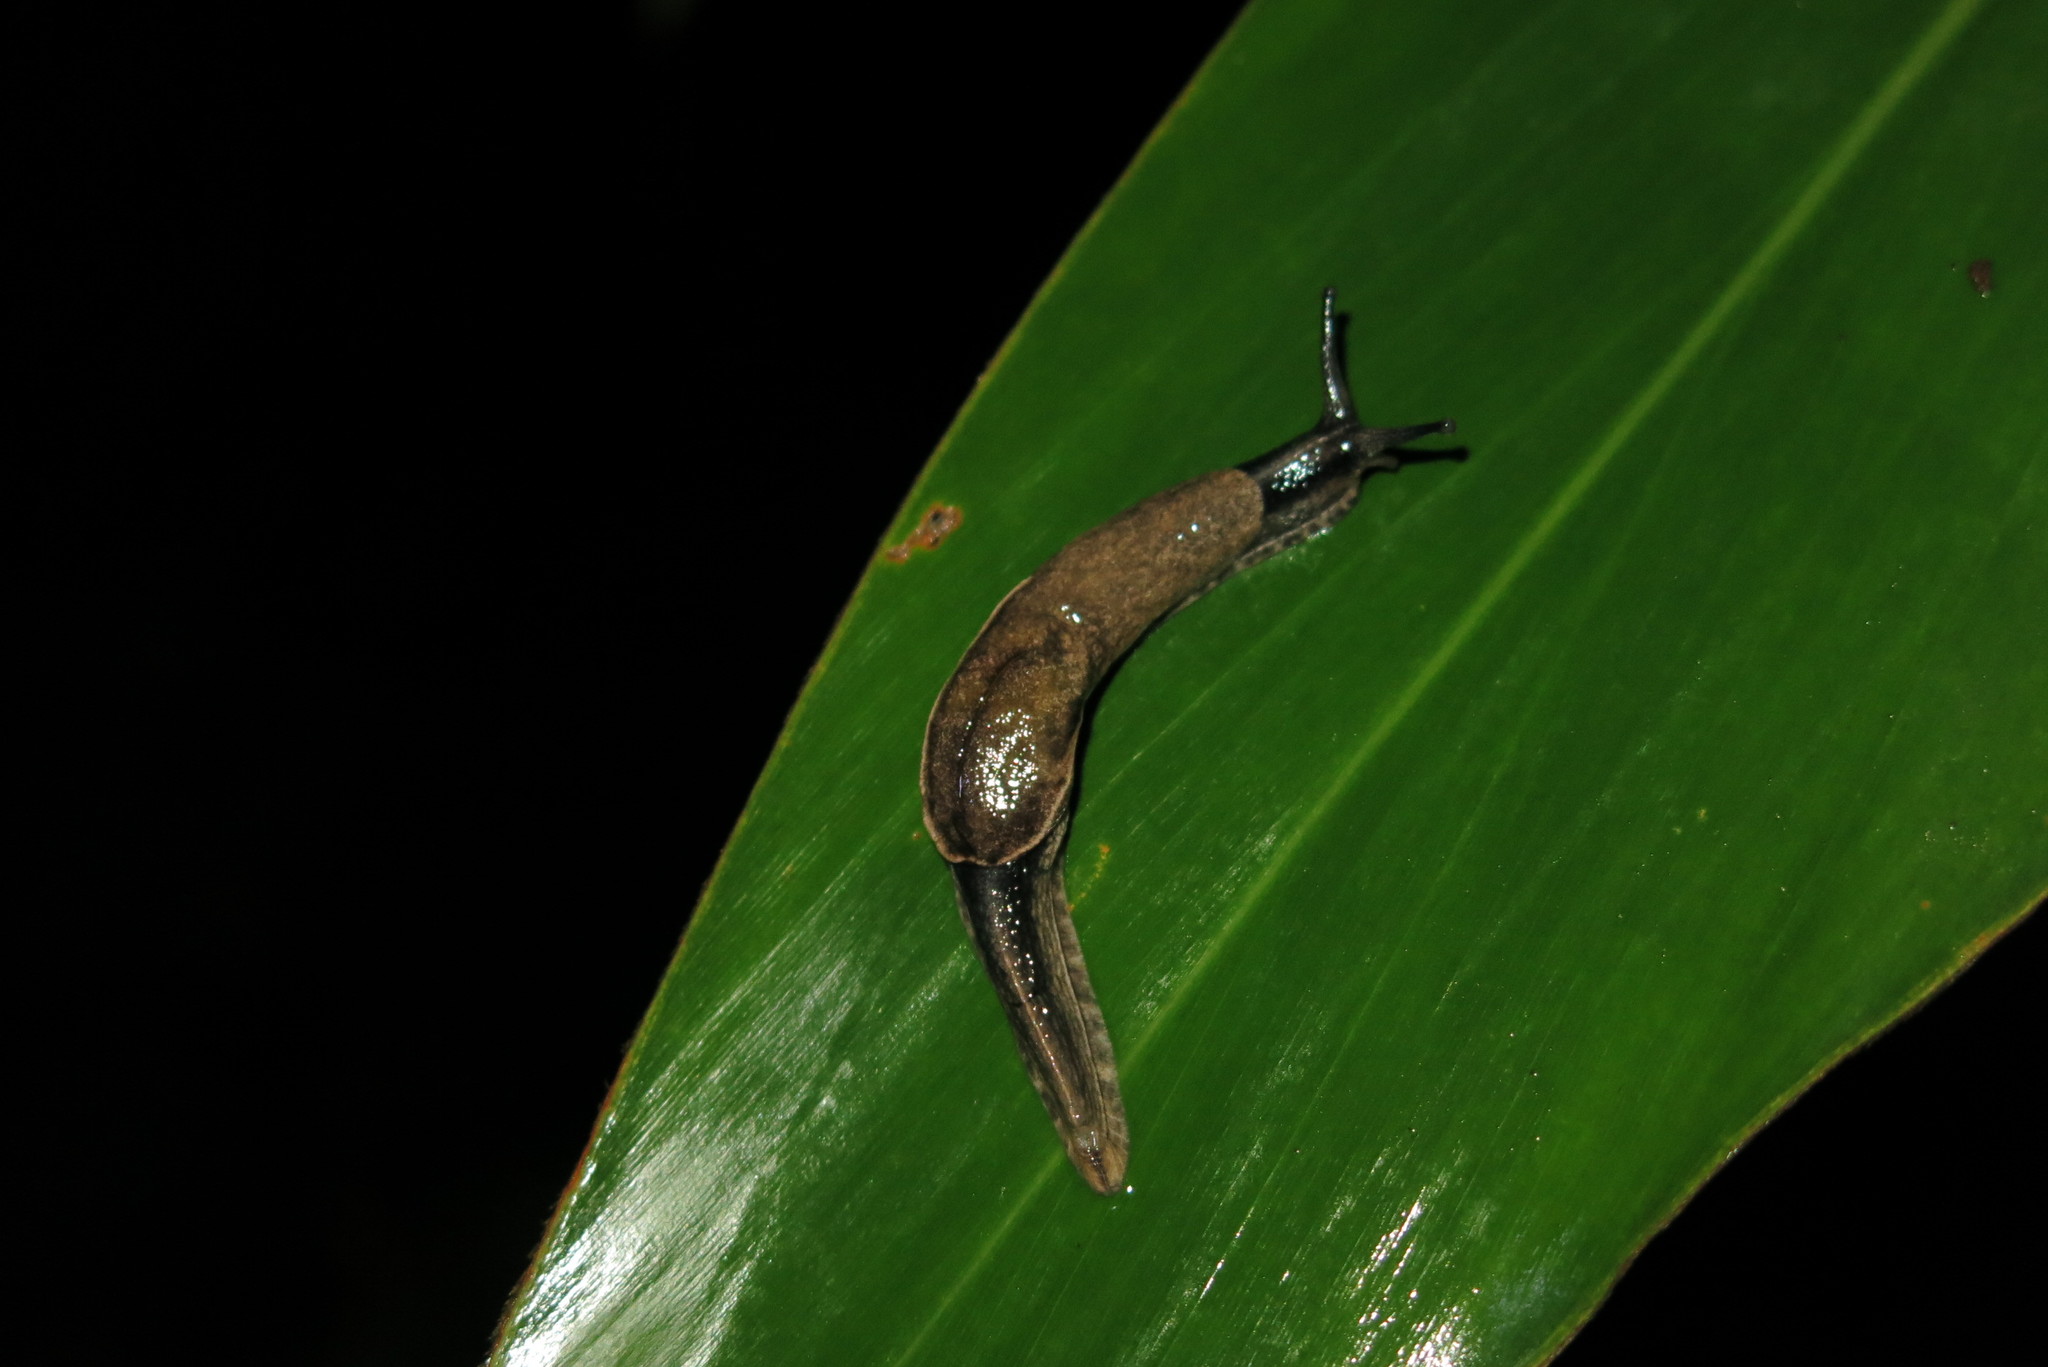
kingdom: Animalia
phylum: Mollusca
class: Gastropoda
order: Stylommatophora
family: Ariophantidae
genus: Parmarion
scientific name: Parmarion martensi
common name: Semi-slug
